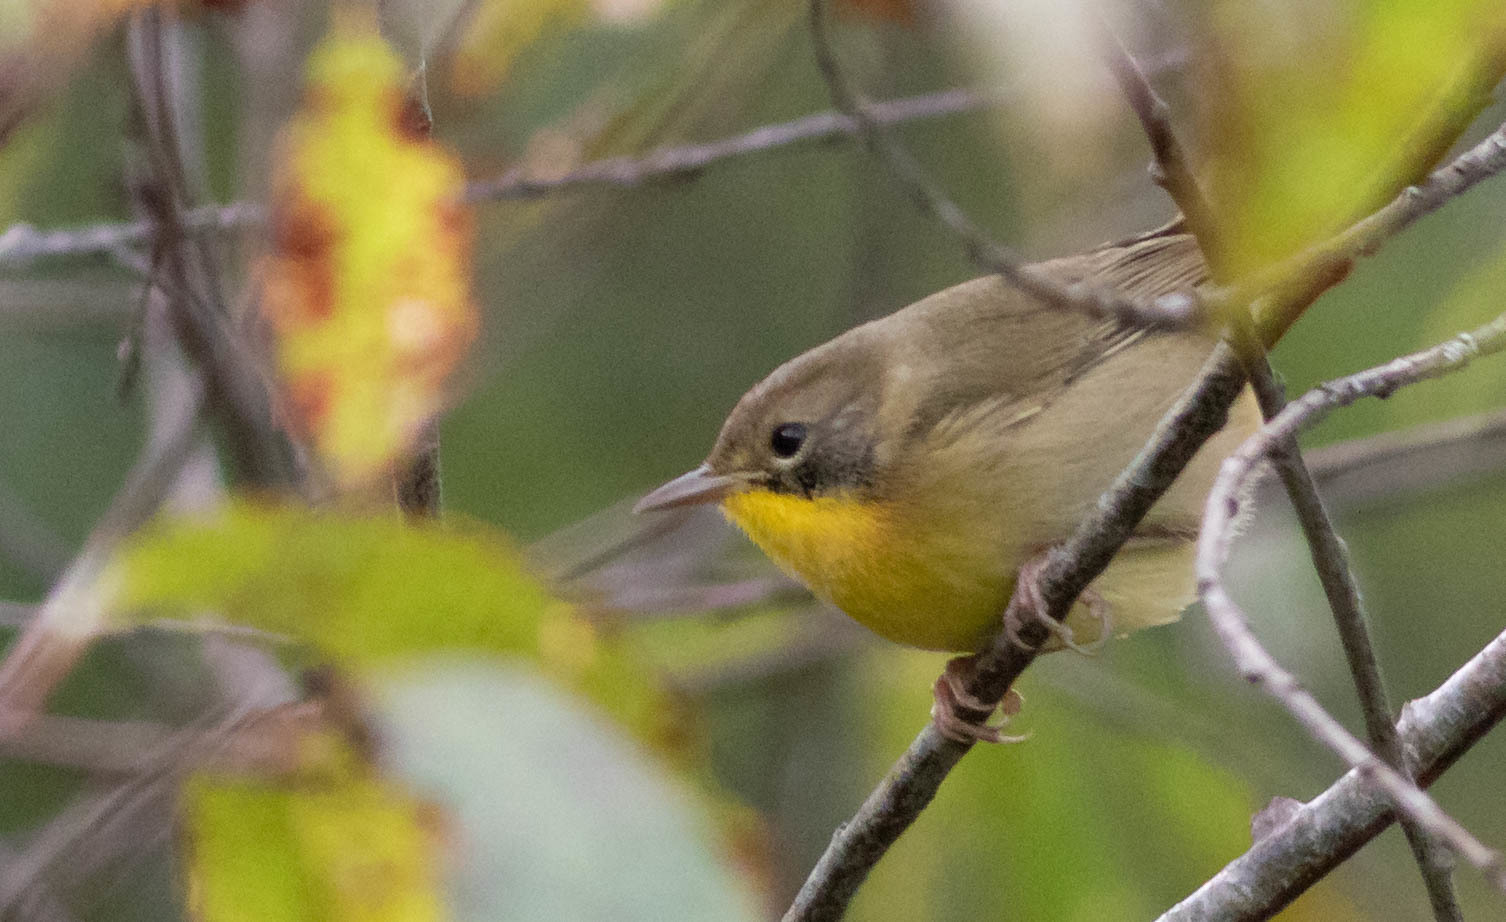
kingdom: Animalia
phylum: Chordata
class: Aves
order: Passeriformes
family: Parulidae
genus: Geothlypis
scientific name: Geothlypis trichas
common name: Common yellowthroat
